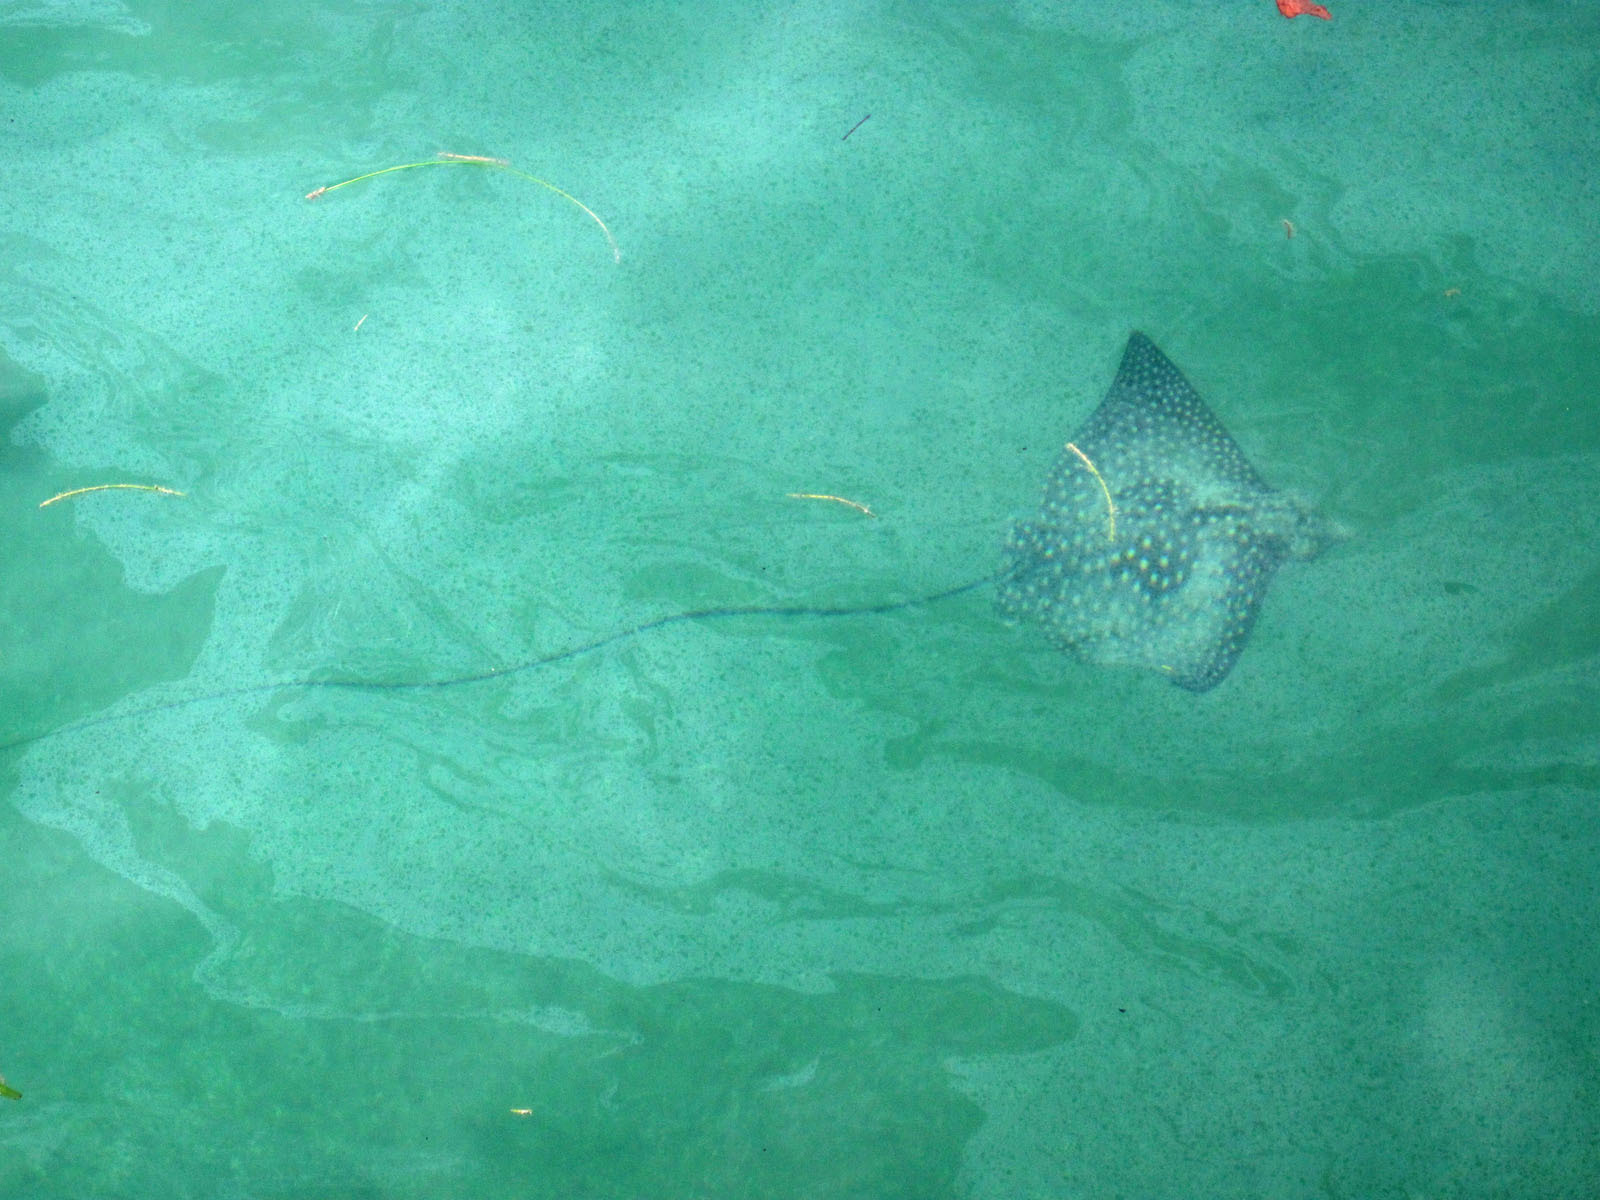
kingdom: Animalia
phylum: Chordata
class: Elasmobranchii
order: Myliobatiformes
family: Myliobatidae
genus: Aetobatus
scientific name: Aetobatus narinari
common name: Spotted eagle ray
